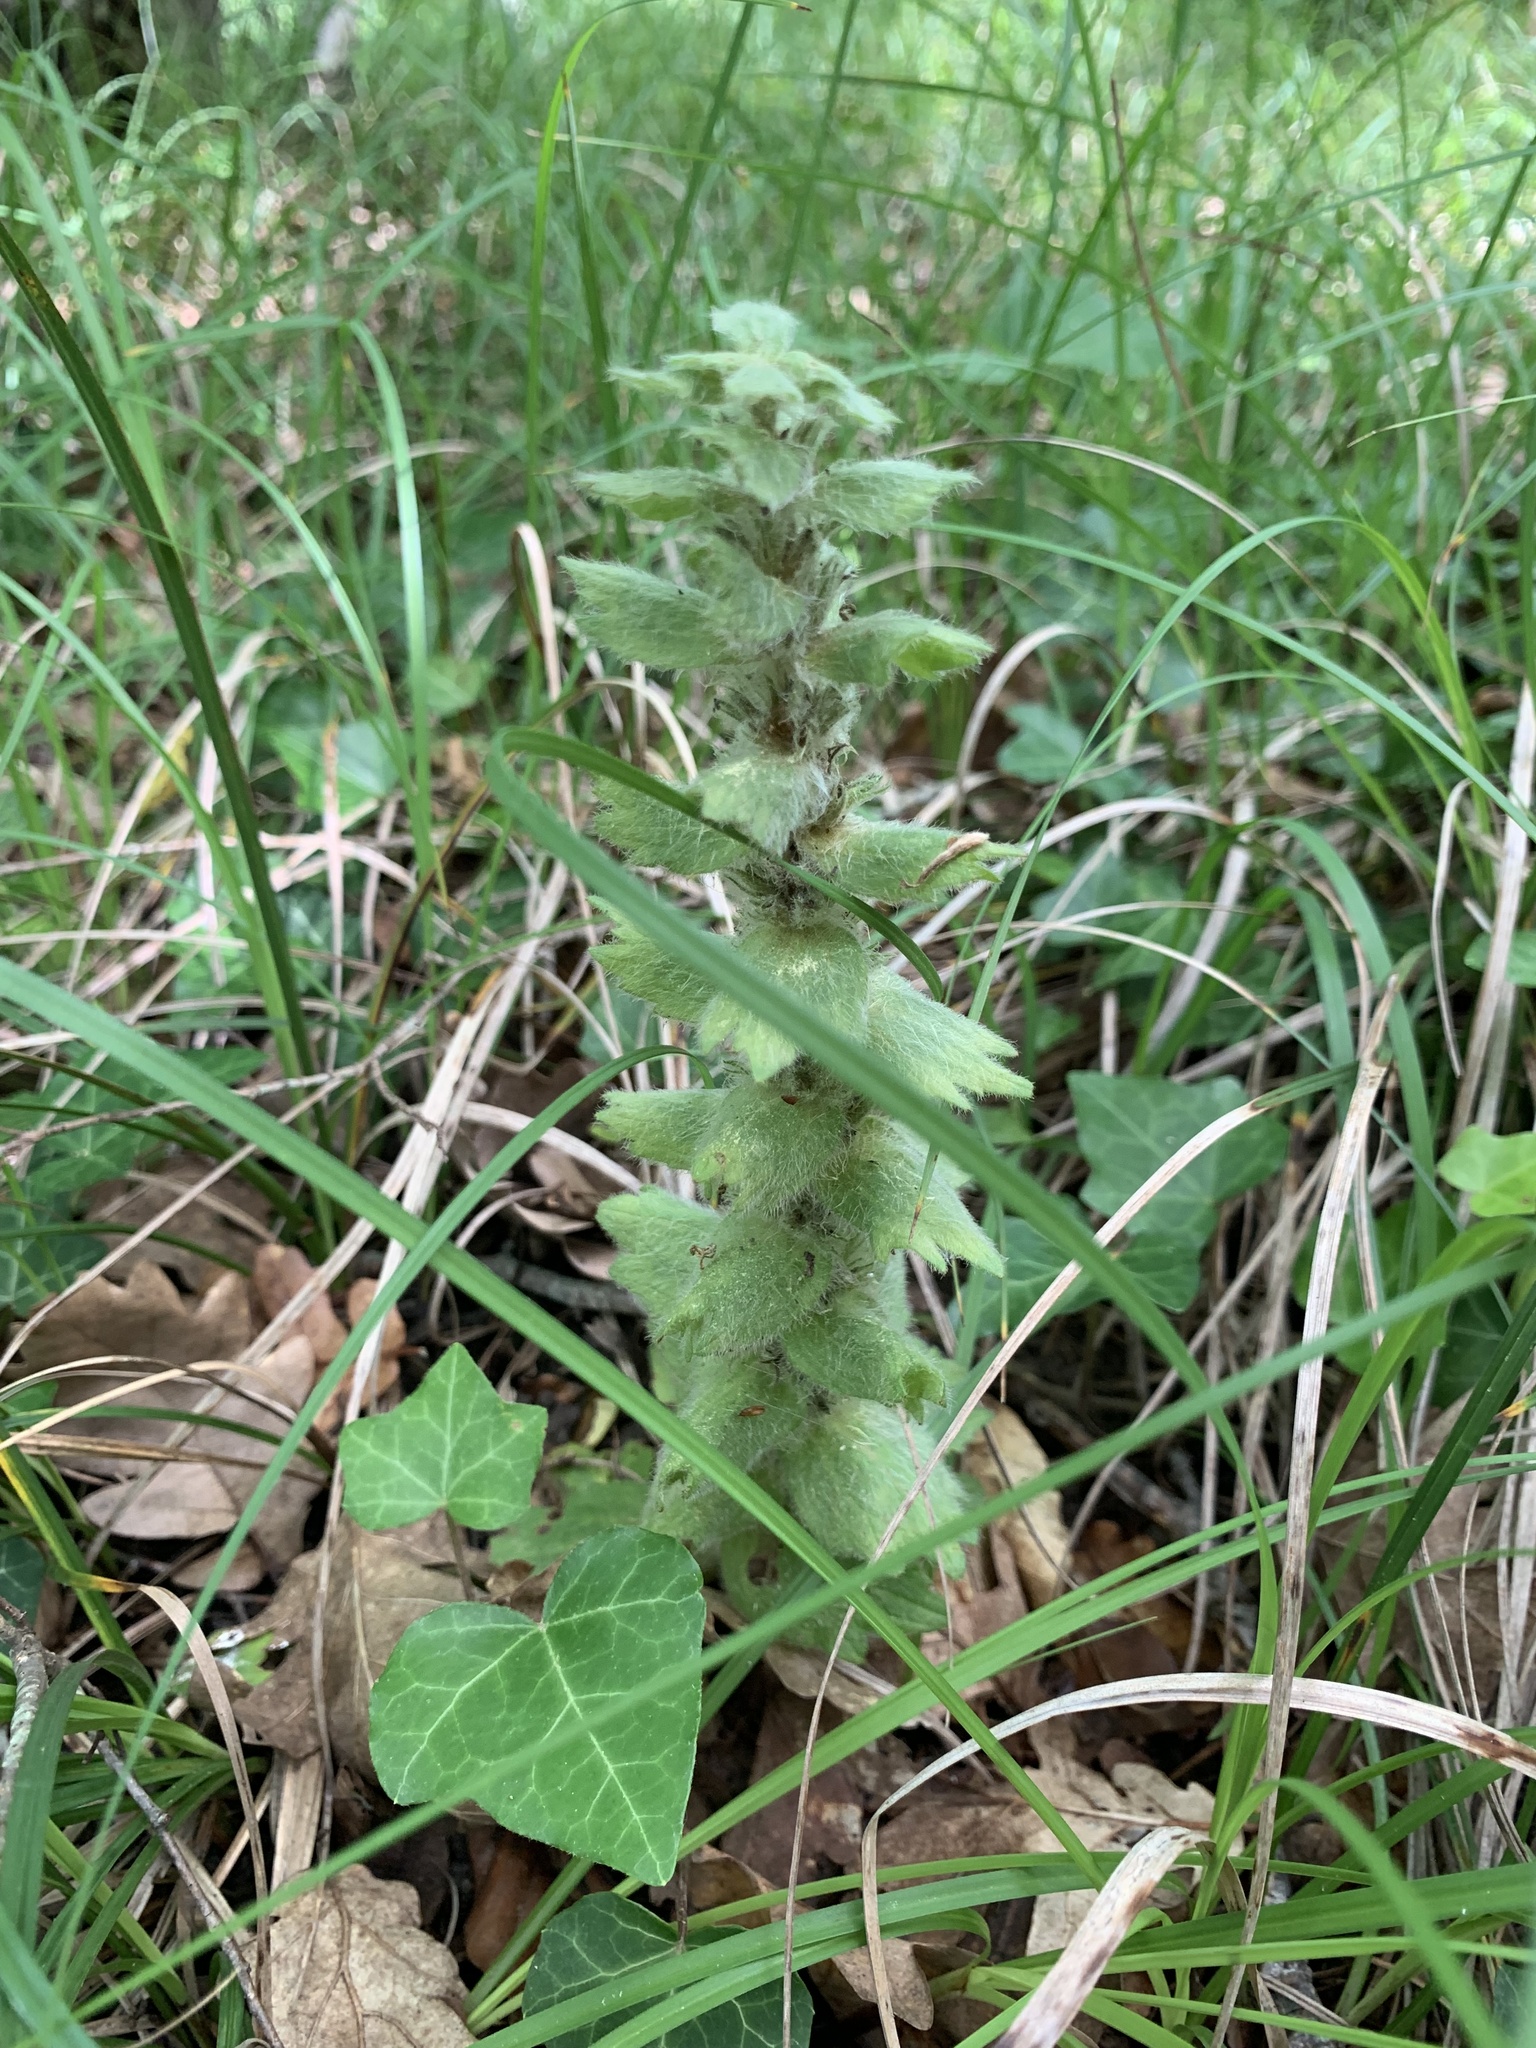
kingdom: Plantae
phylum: Tracheophyta
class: Magnoliopsida
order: Lamiales
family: Lamiaceae
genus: Ajuga
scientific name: Ajuga orientalis
